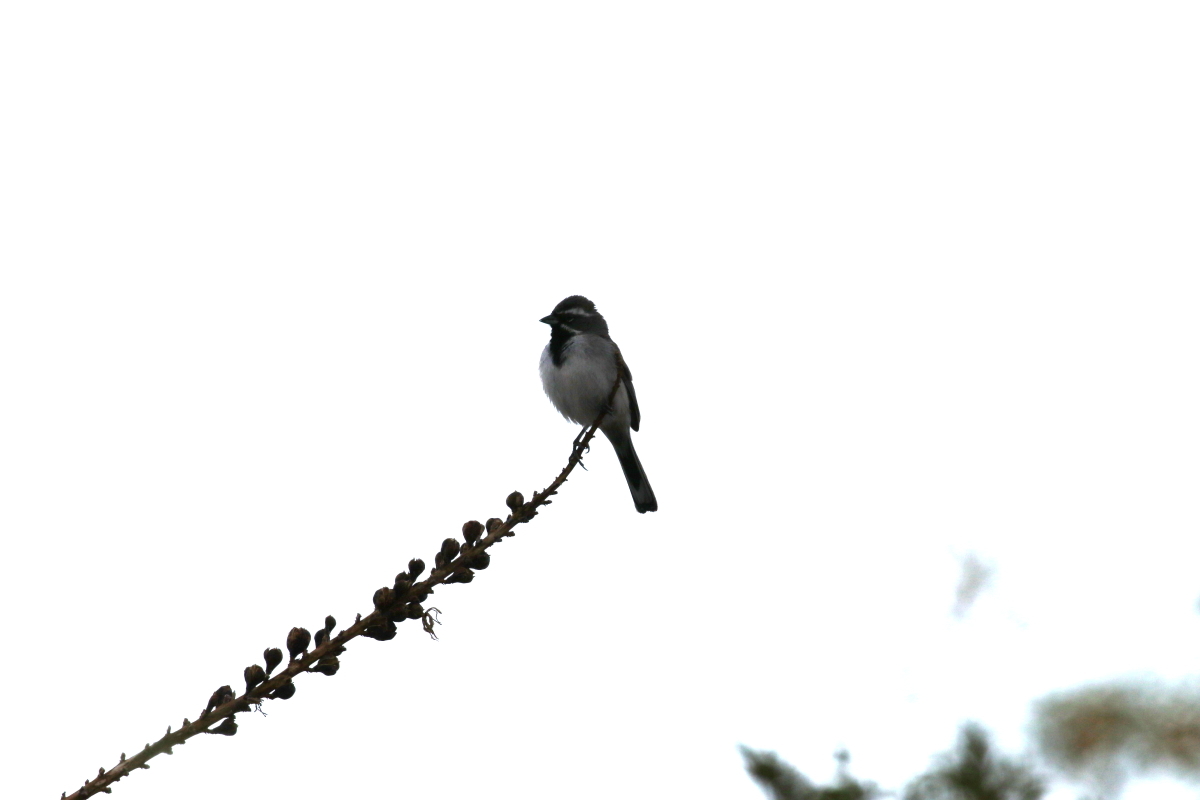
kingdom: Animalia
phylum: Chordata
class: Aves
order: Passeriformes
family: Passerellidae
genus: Amphispiza
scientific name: Amphispiza bilineata
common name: Black-throated sparrow
